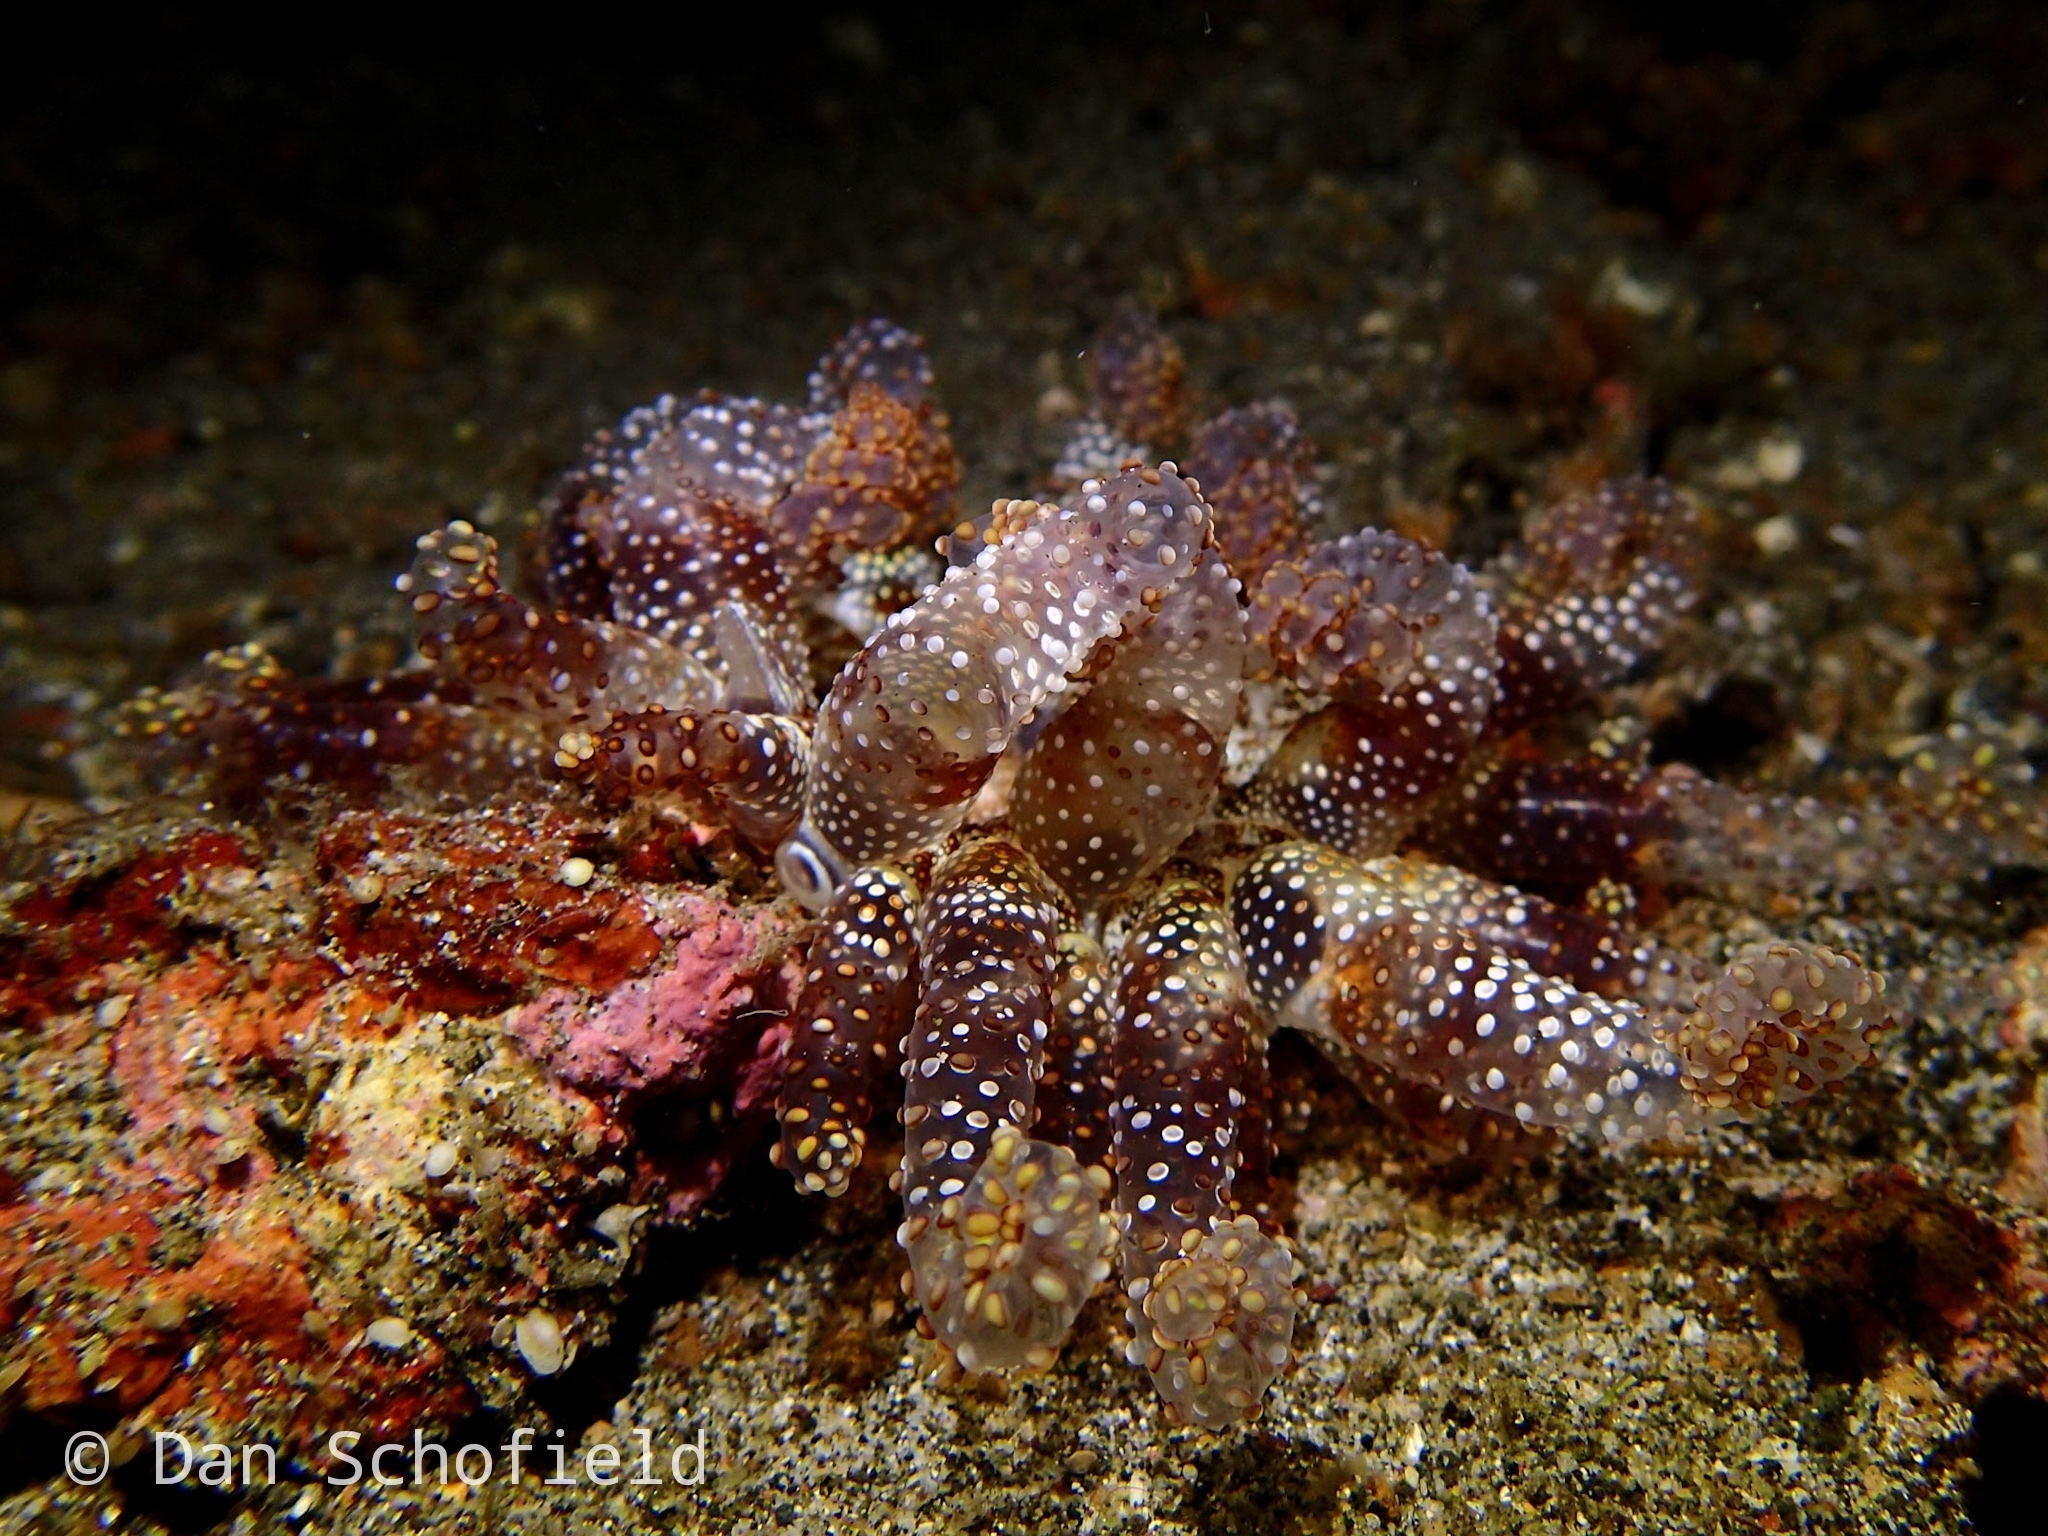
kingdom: Animalia
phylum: Cnidaria
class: Anthozoa
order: Actiniaria
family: Actiniidae
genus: Dofleinia
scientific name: Dofleinia armata
